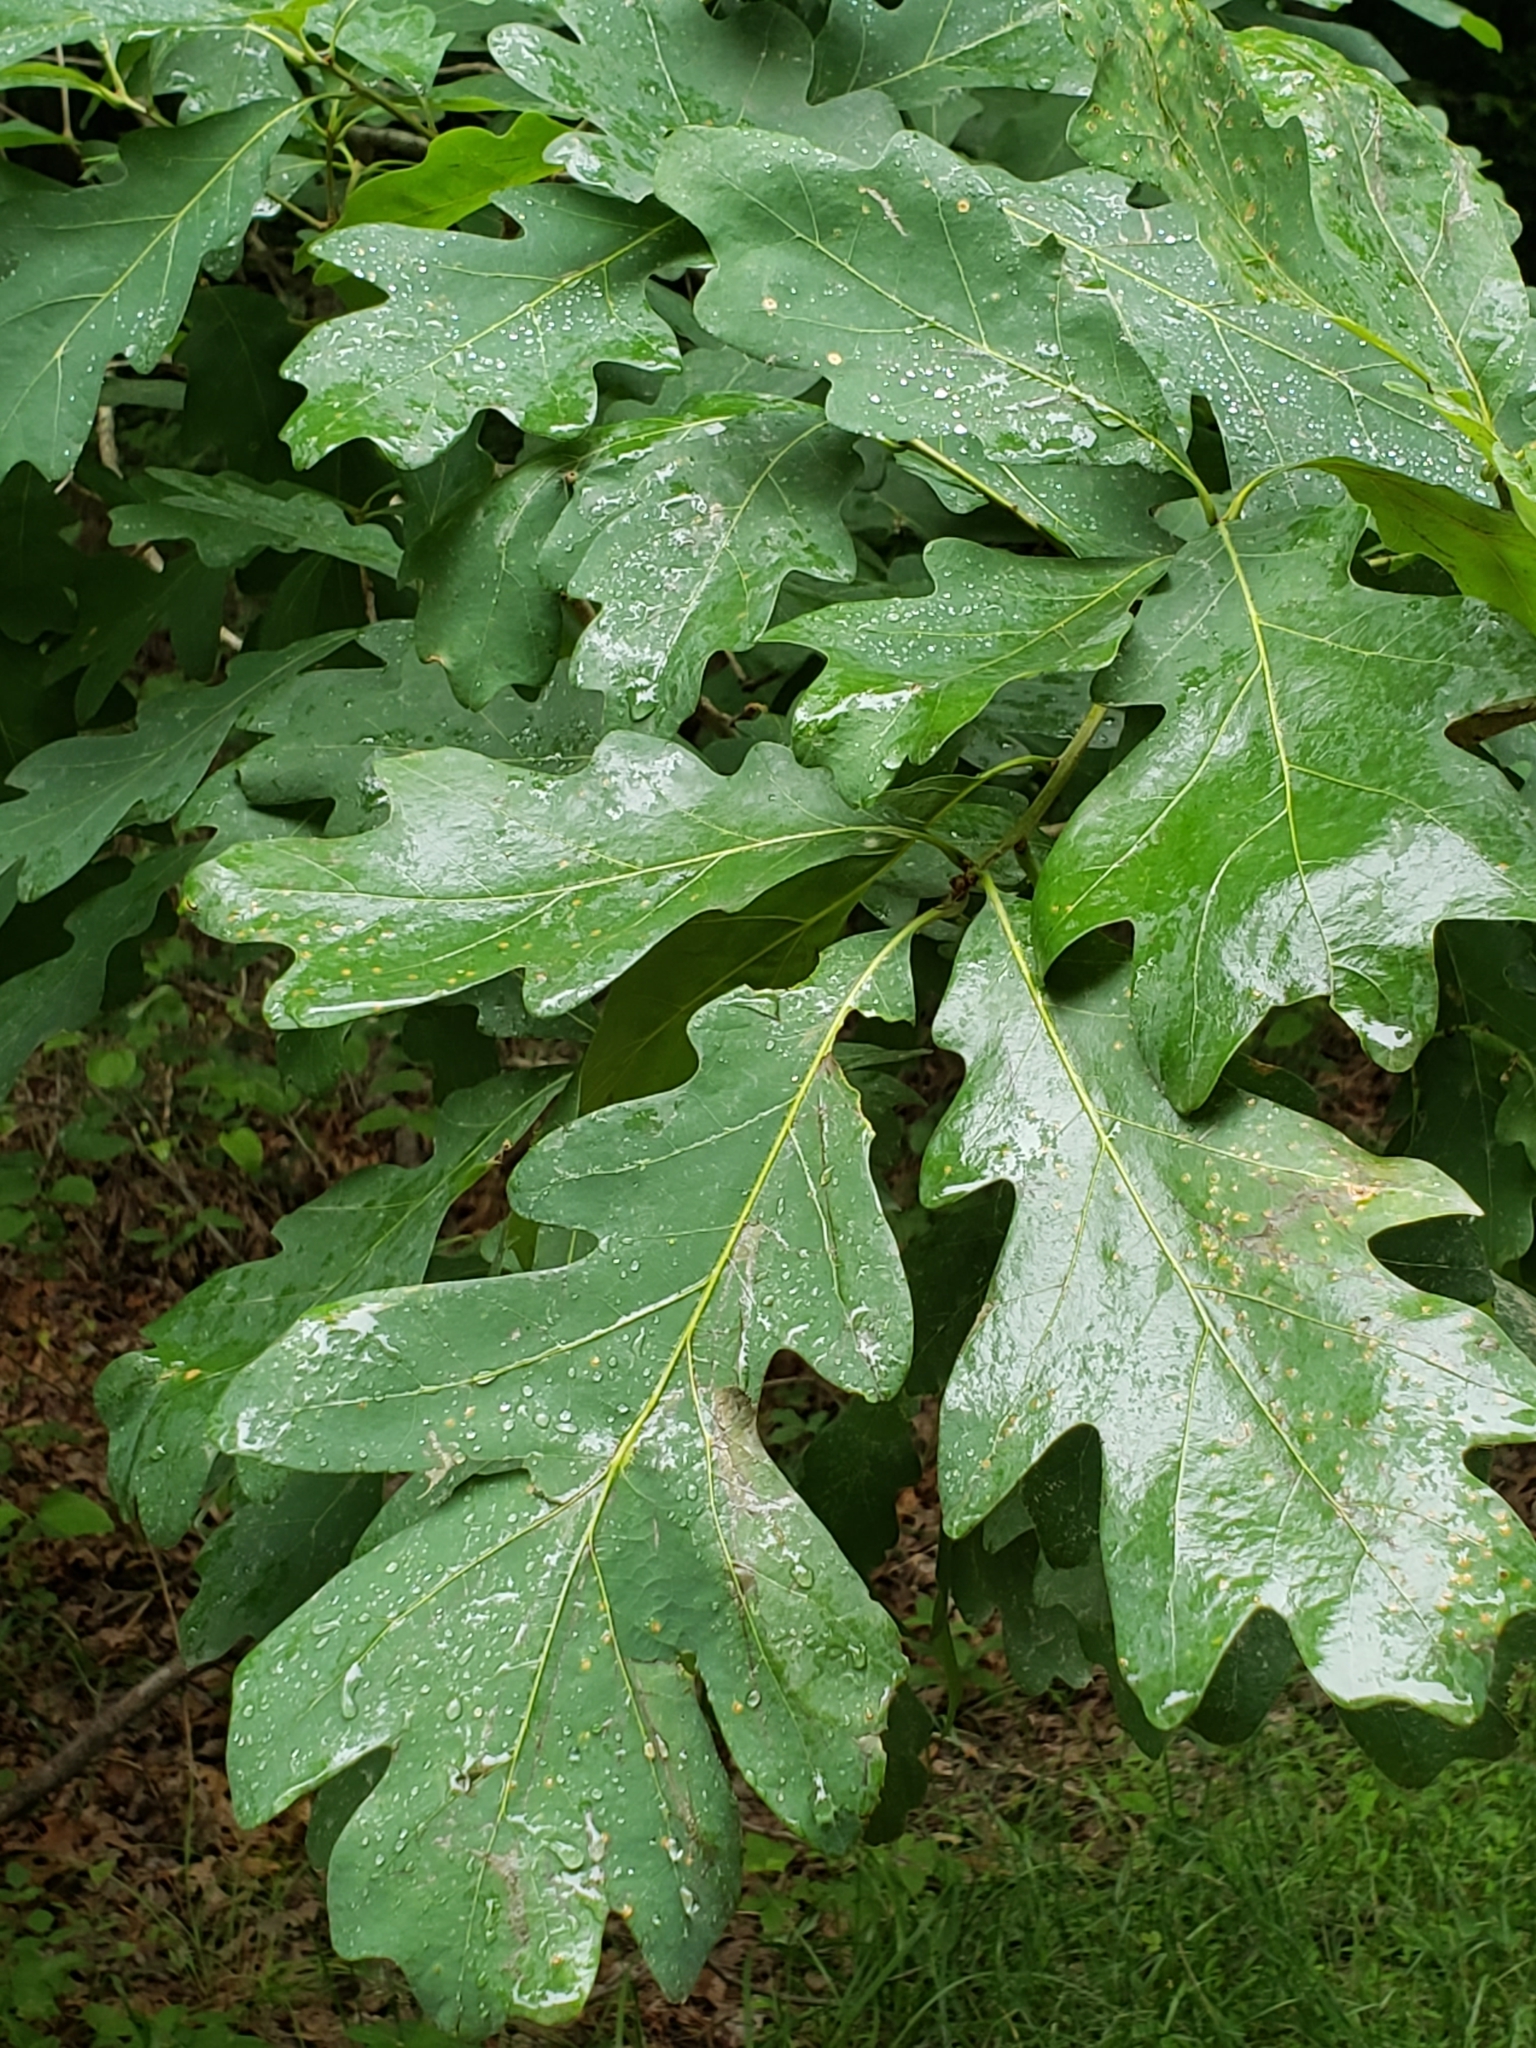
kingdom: Plantae
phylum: Tracheophyta
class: Magnoliopsida
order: Fagales
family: Fagaceae
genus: Quercus
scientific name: Quercus alba
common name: White oak
